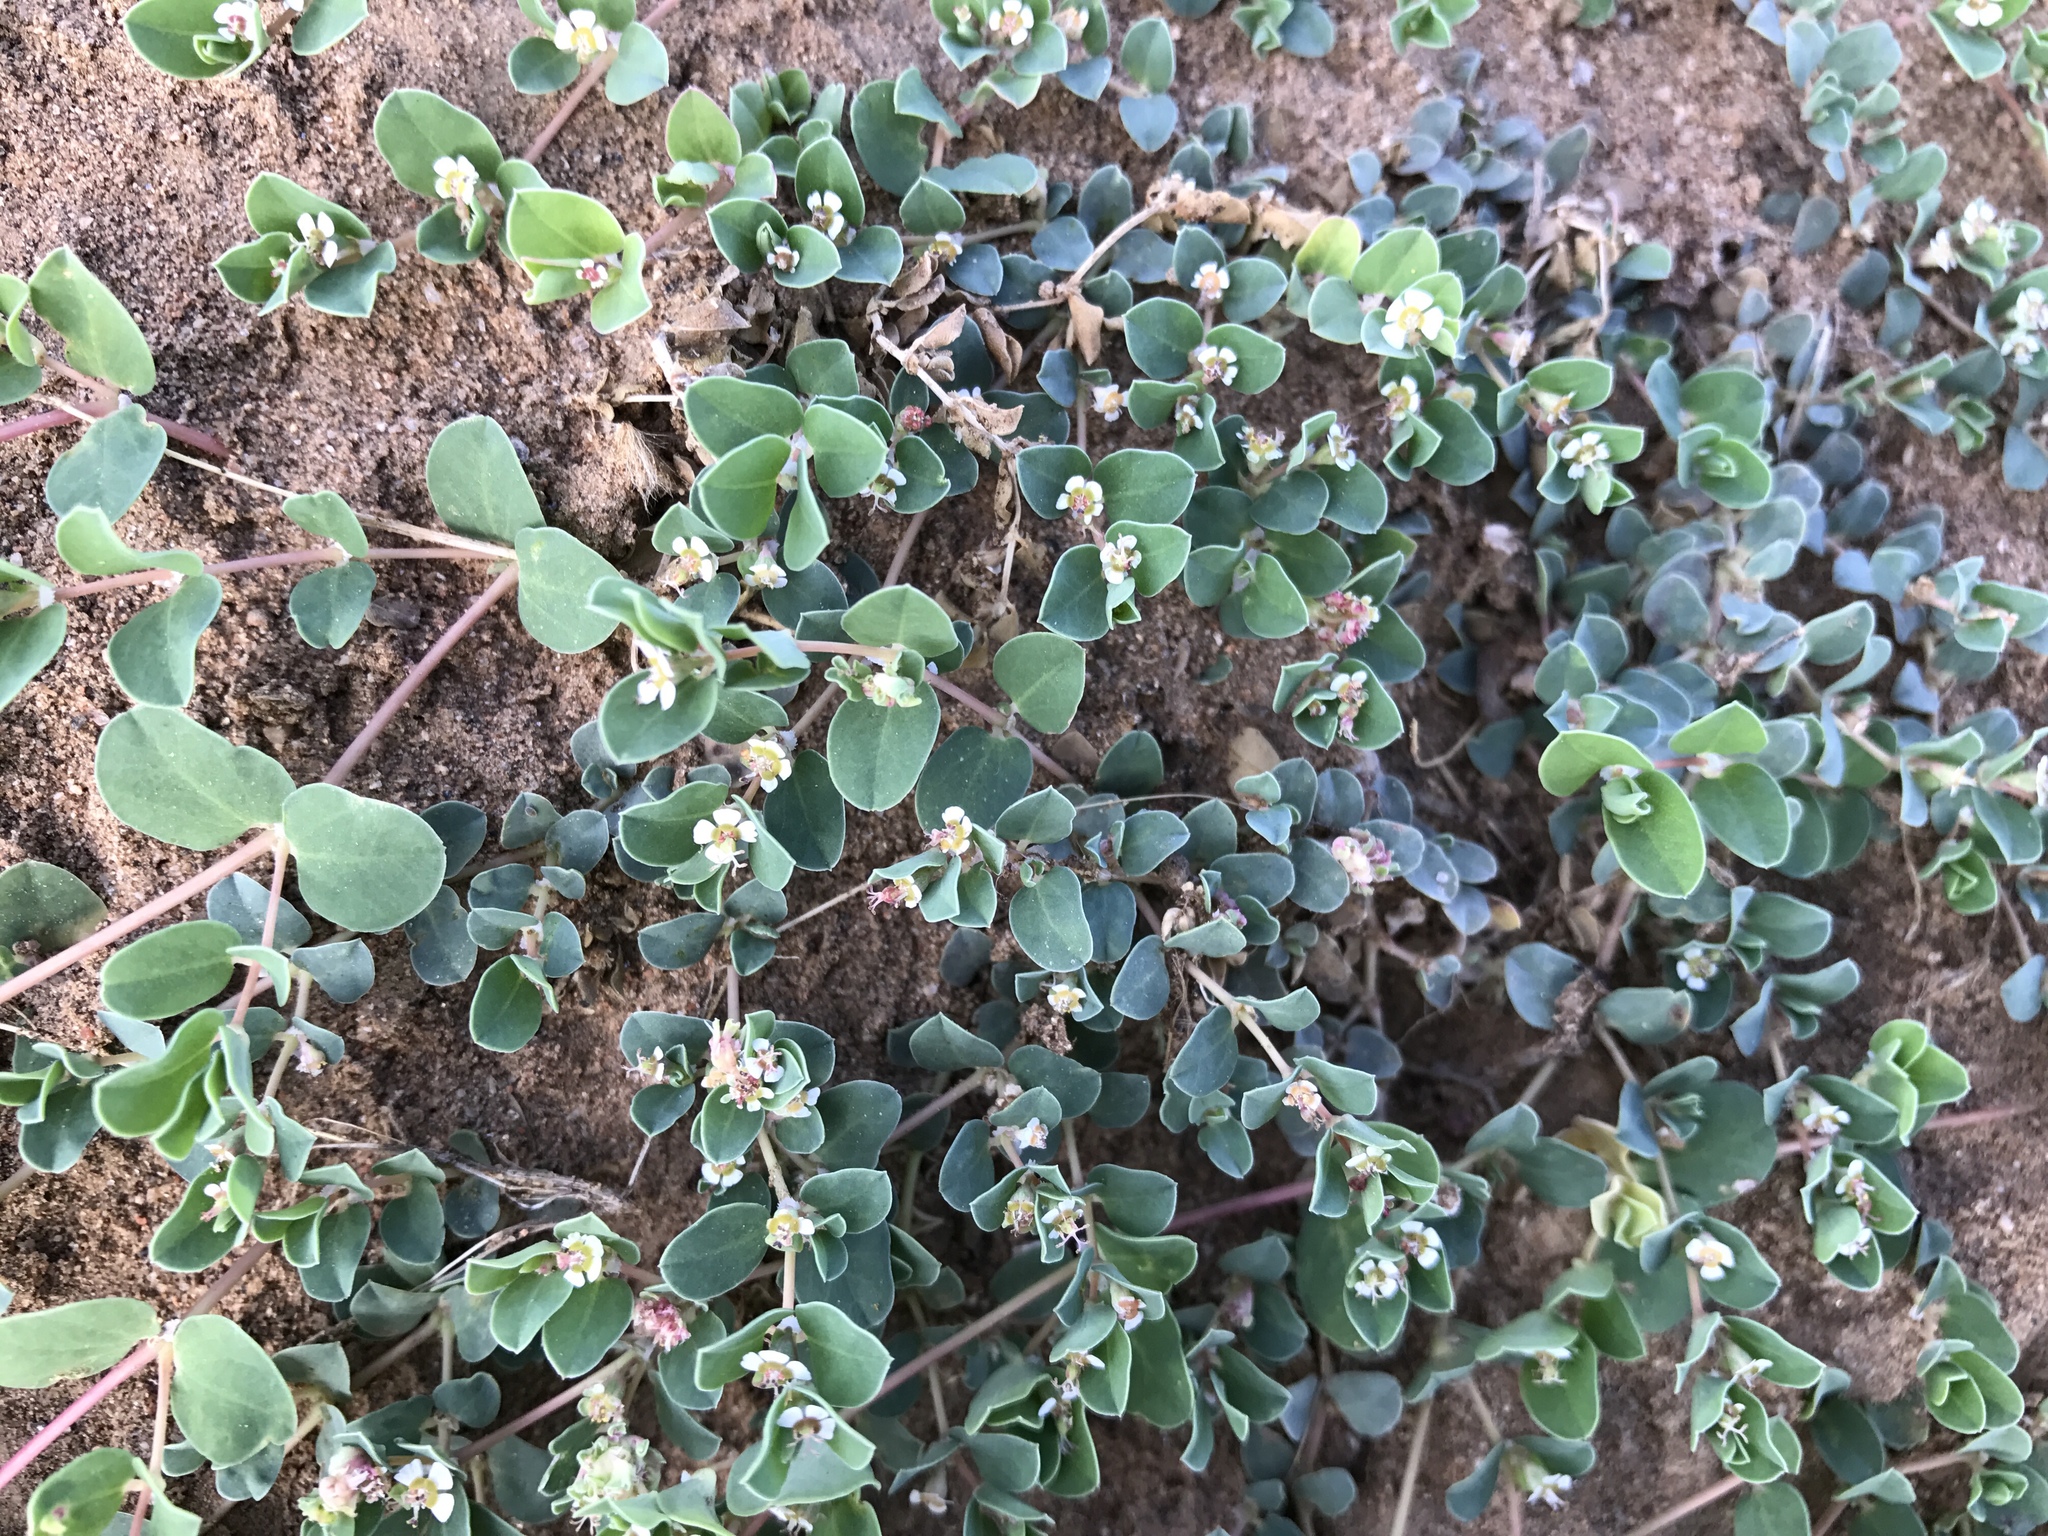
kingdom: Plantae
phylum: Tracheophyta
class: Magnoliopsida
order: Malpighiales
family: Euphorbiaceae
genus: Euphorbia
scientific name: Euphorbia albomarginata
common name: Whitemargin sandmat
